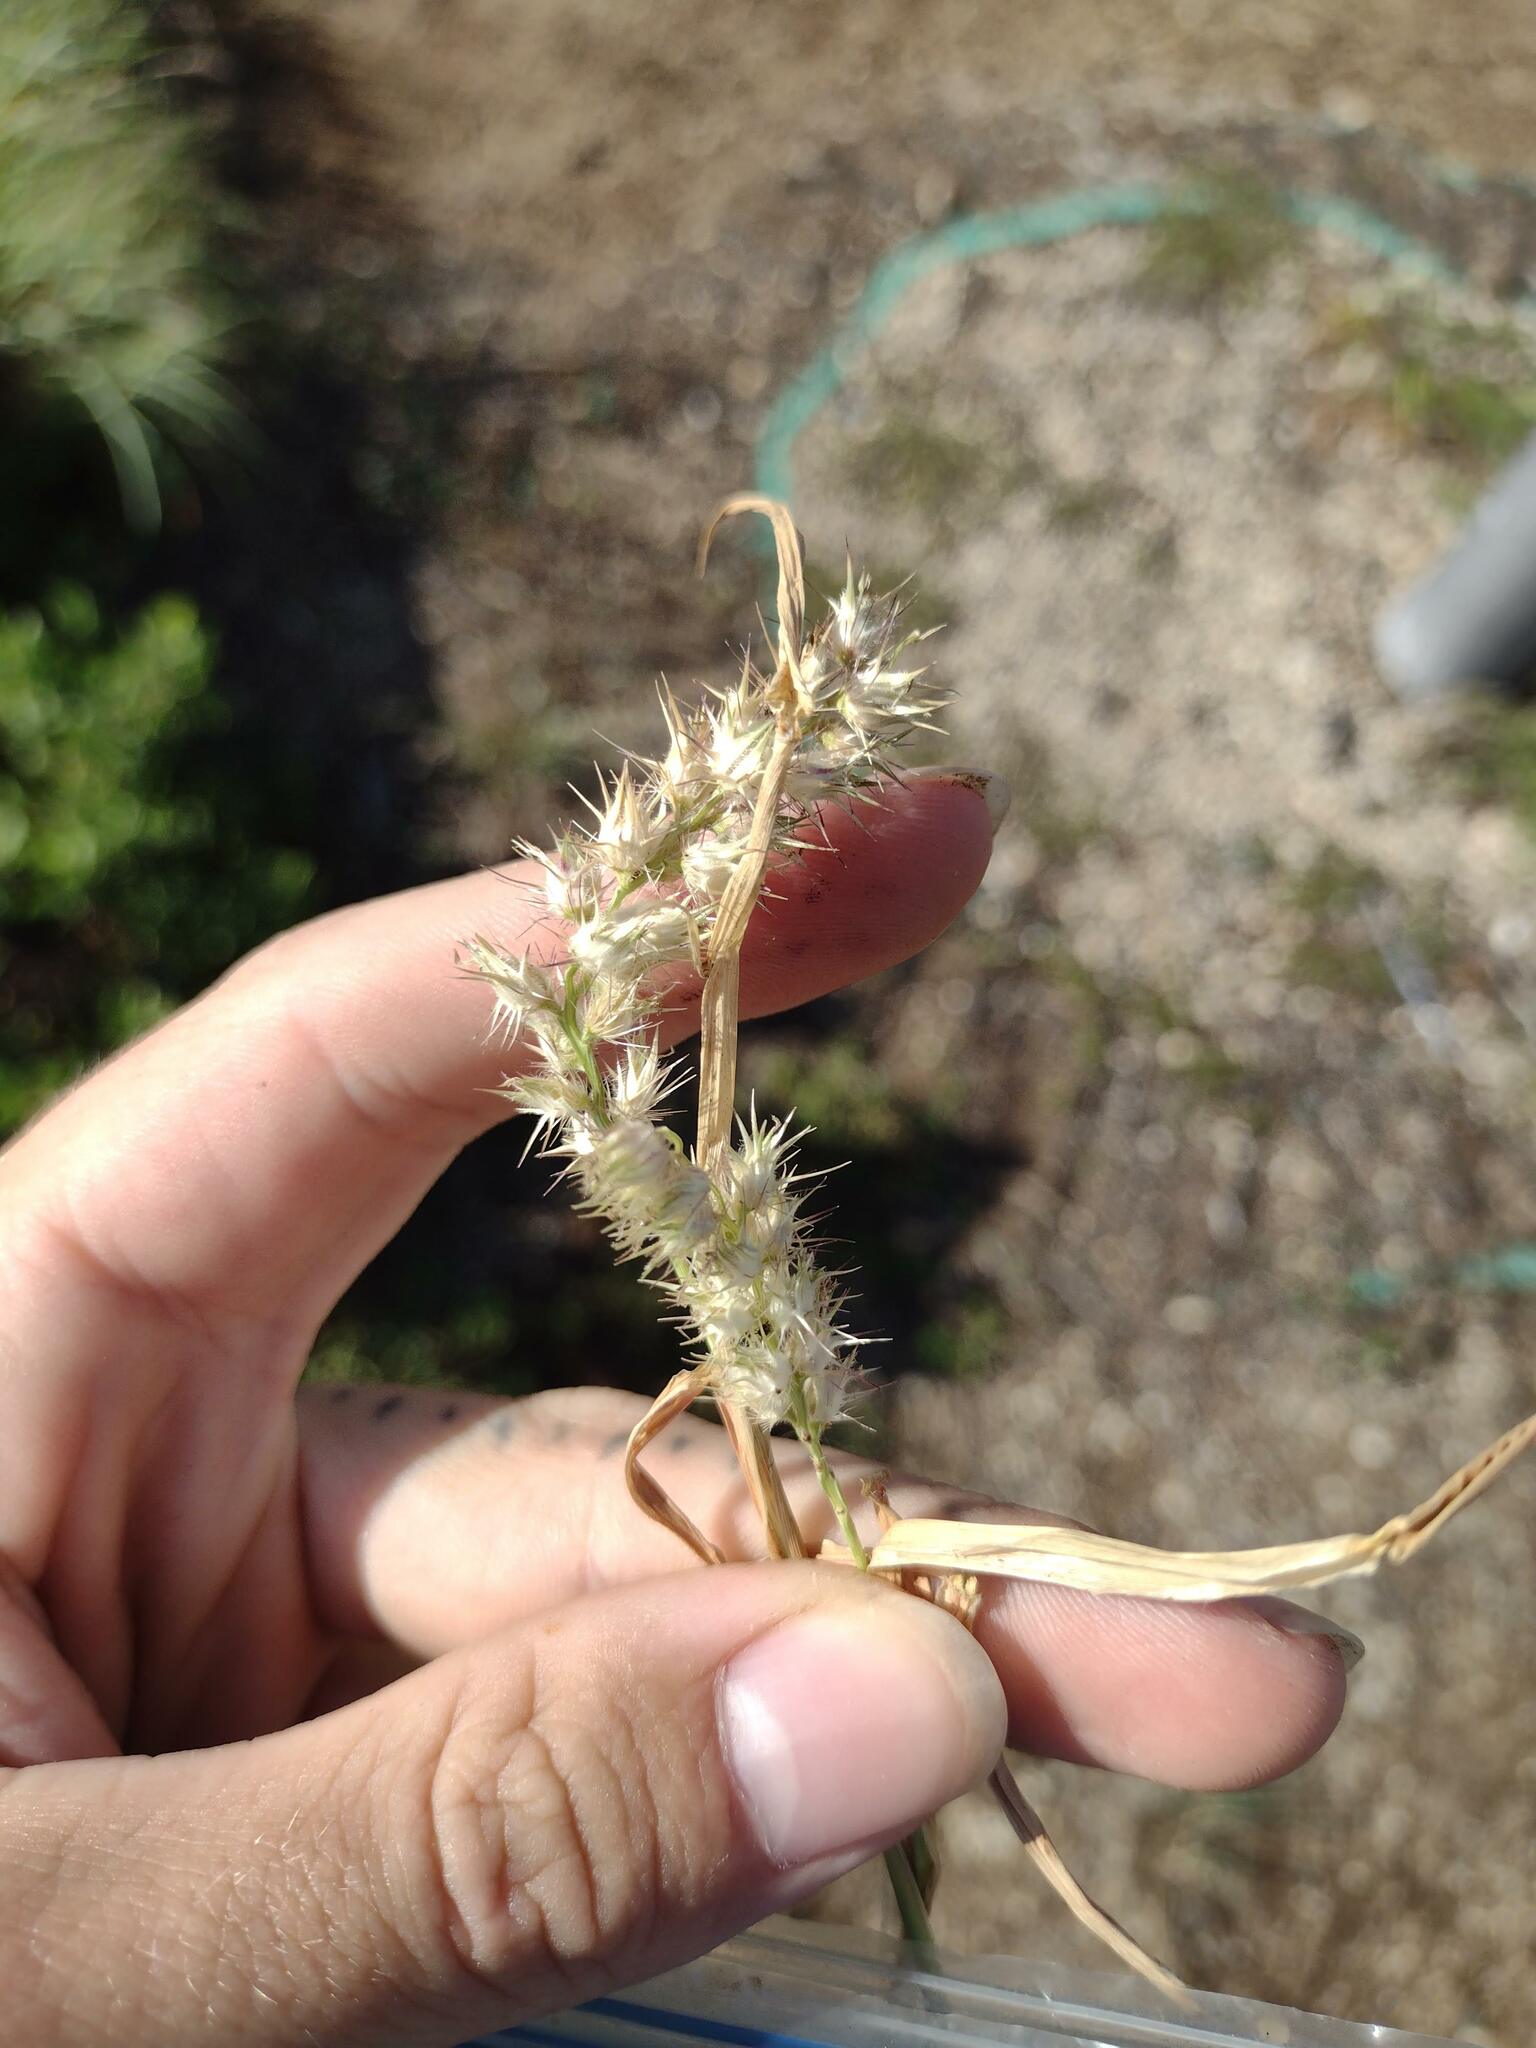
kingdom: Plantae
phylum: Tracheophyta
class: Liliopsida
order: Poales
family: Poaceae
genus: Cenchrus
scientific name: Cenchrus echinatus
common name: Southern sandbur
